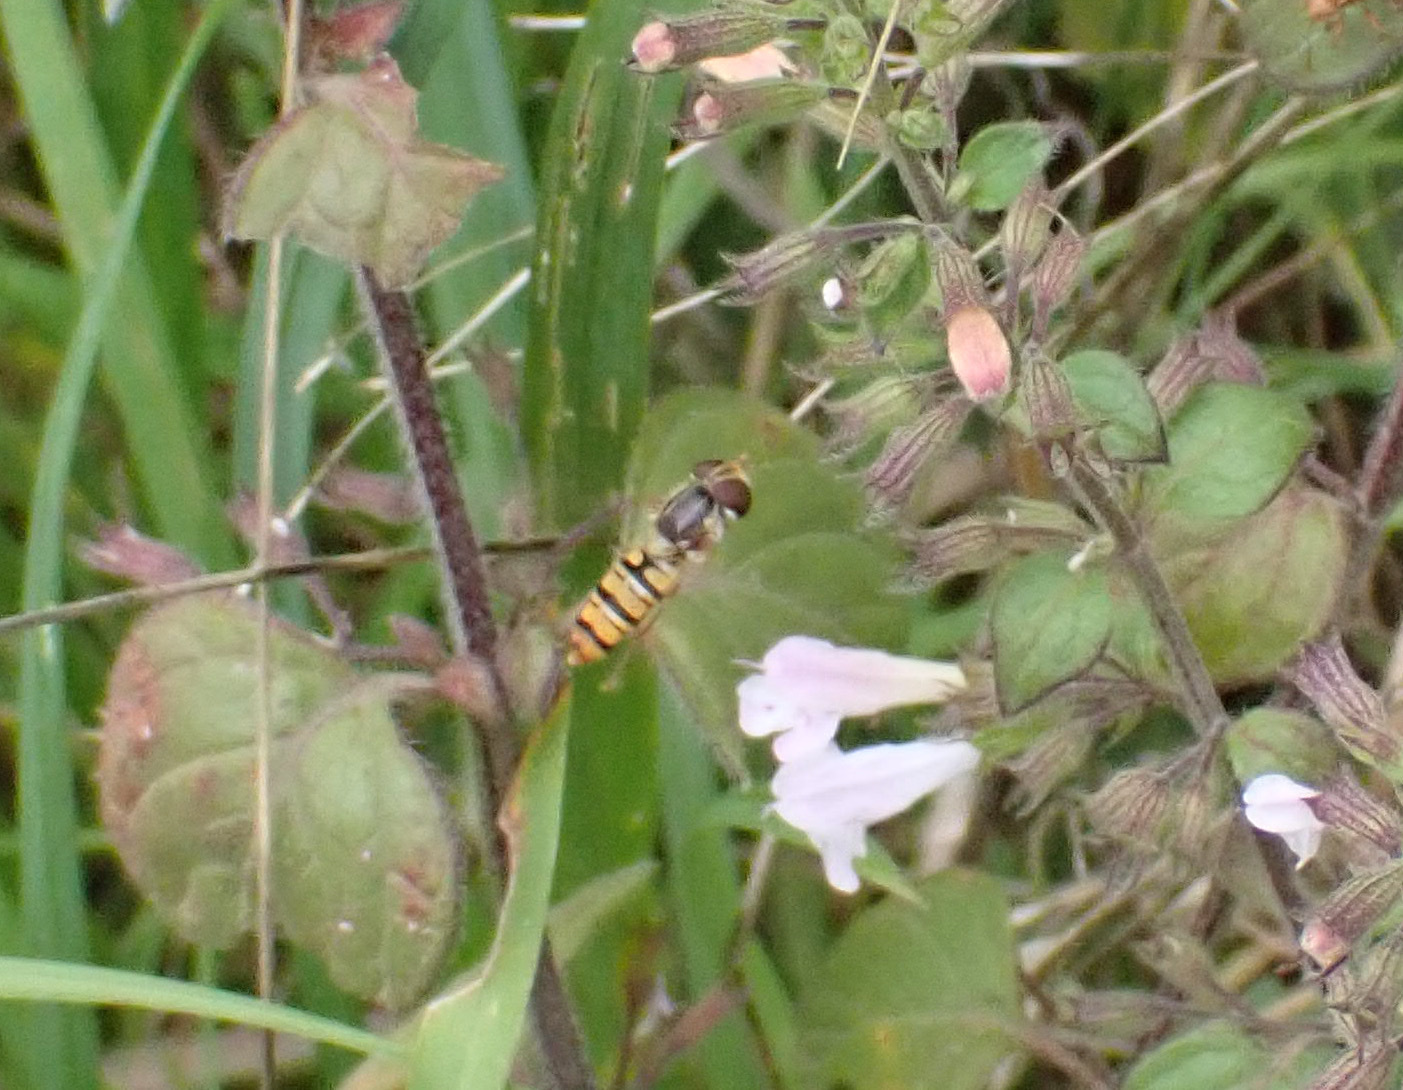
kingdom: Animalia
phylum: Arthropoda
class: Insecta
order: Diptera
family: Syrphidae
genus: Episyrphus
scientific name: Episyrphus balteatus
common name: Marmalade hoverfly
